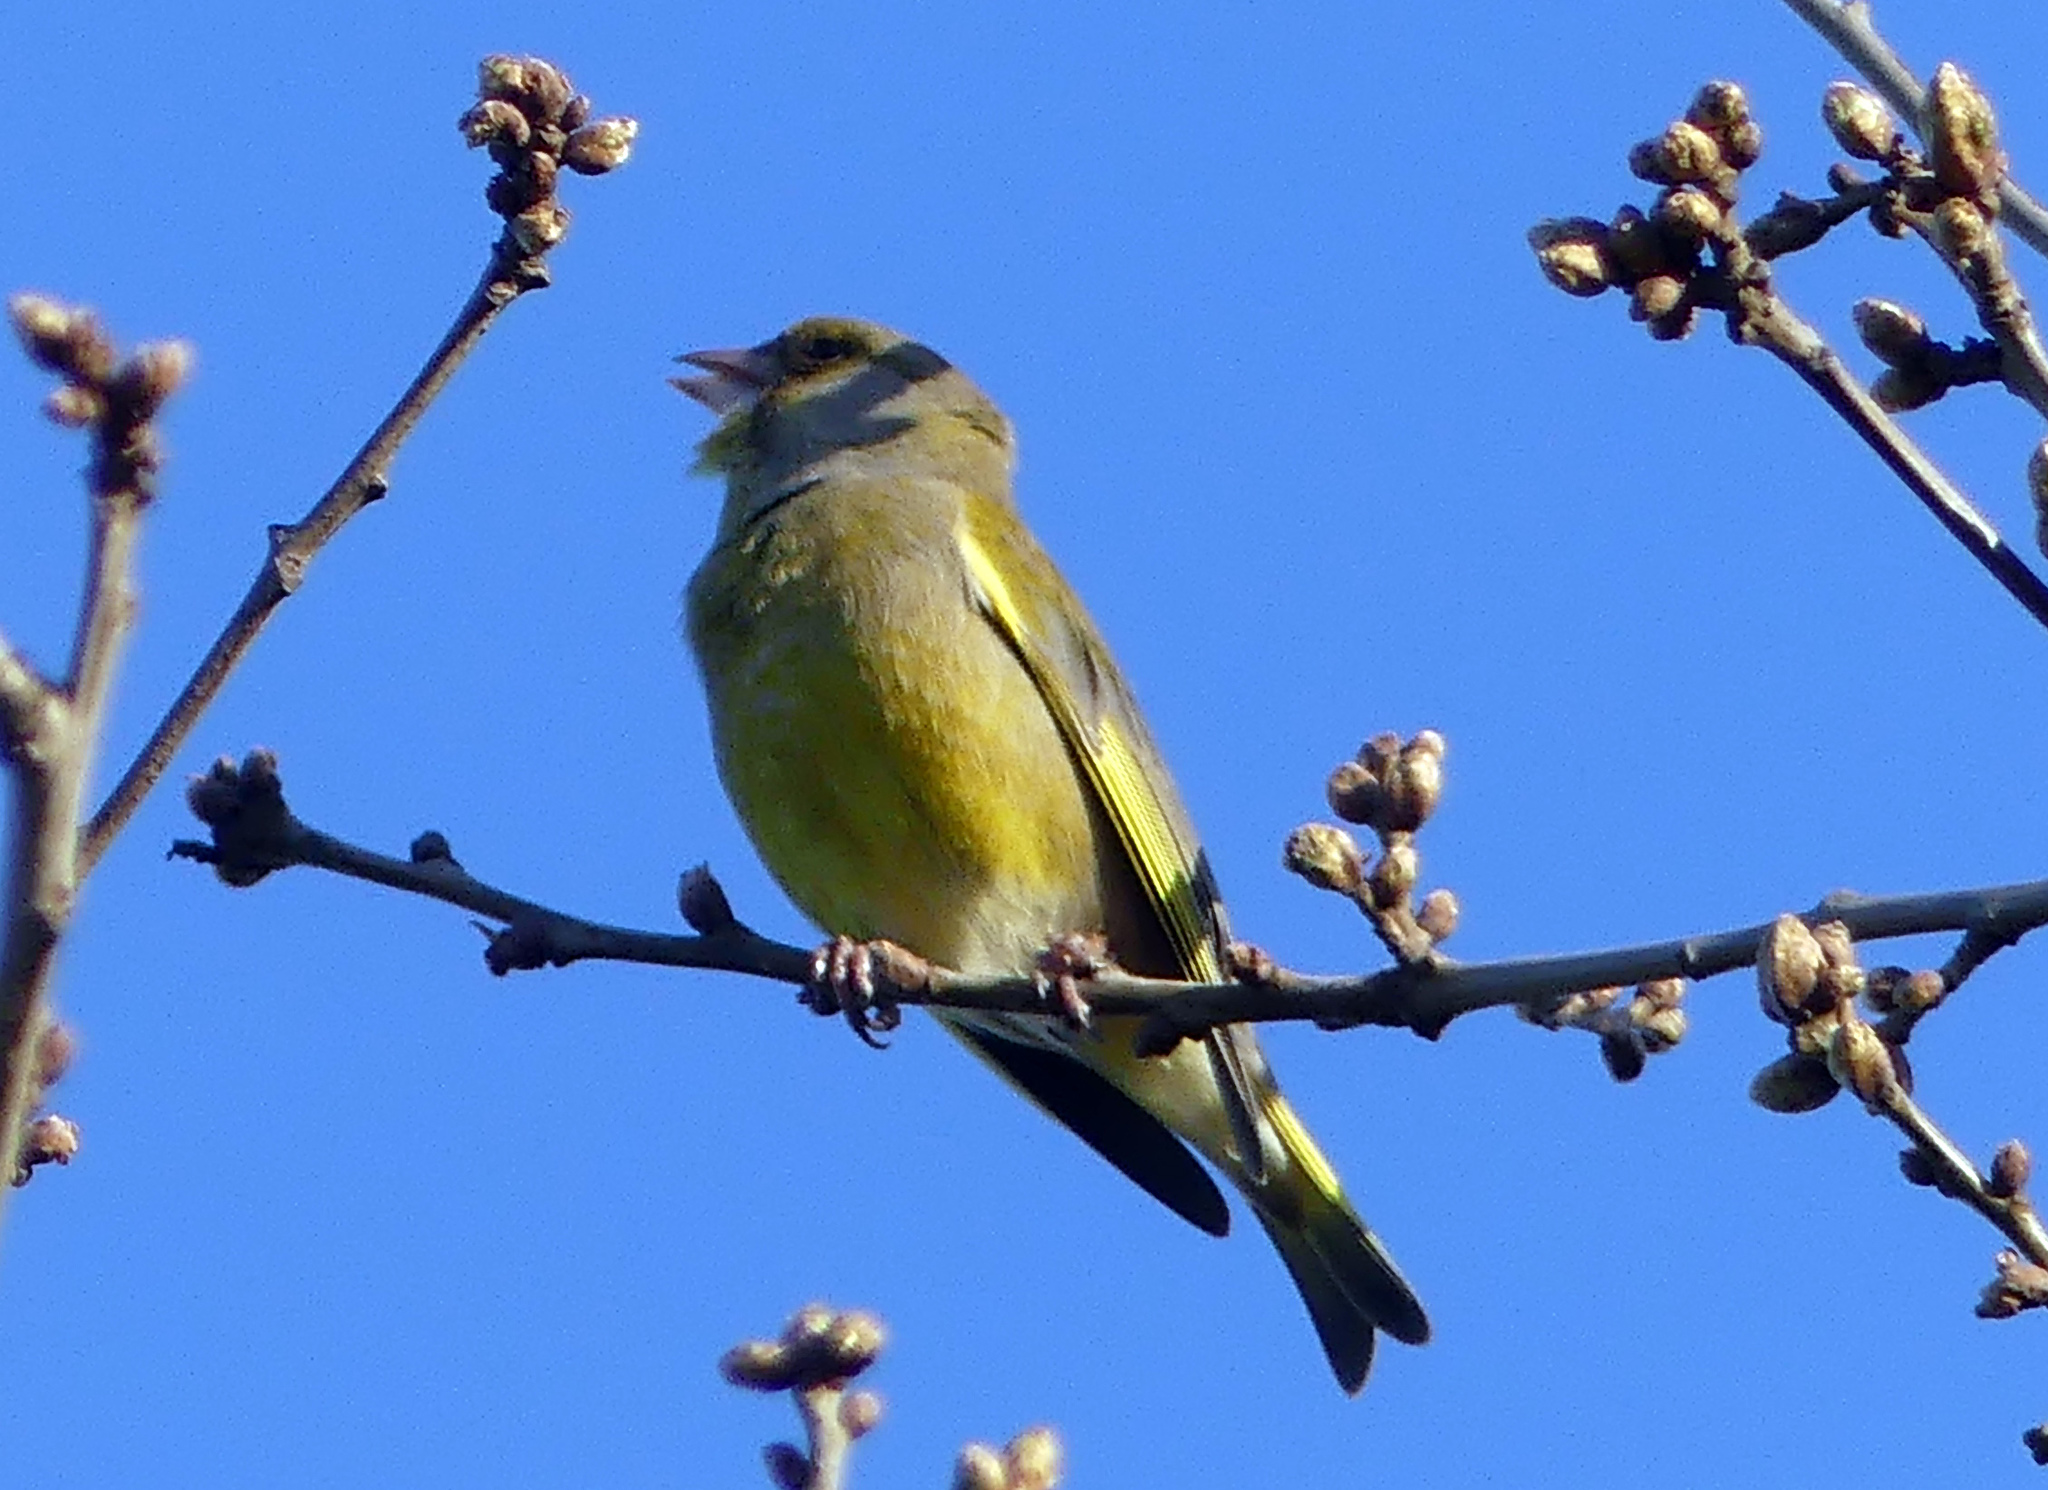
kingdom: Plantae
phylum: Tracheophyta
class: Liliopsida
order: Poales
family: Poaceae
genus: Chloris
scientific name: Chloris chloris
